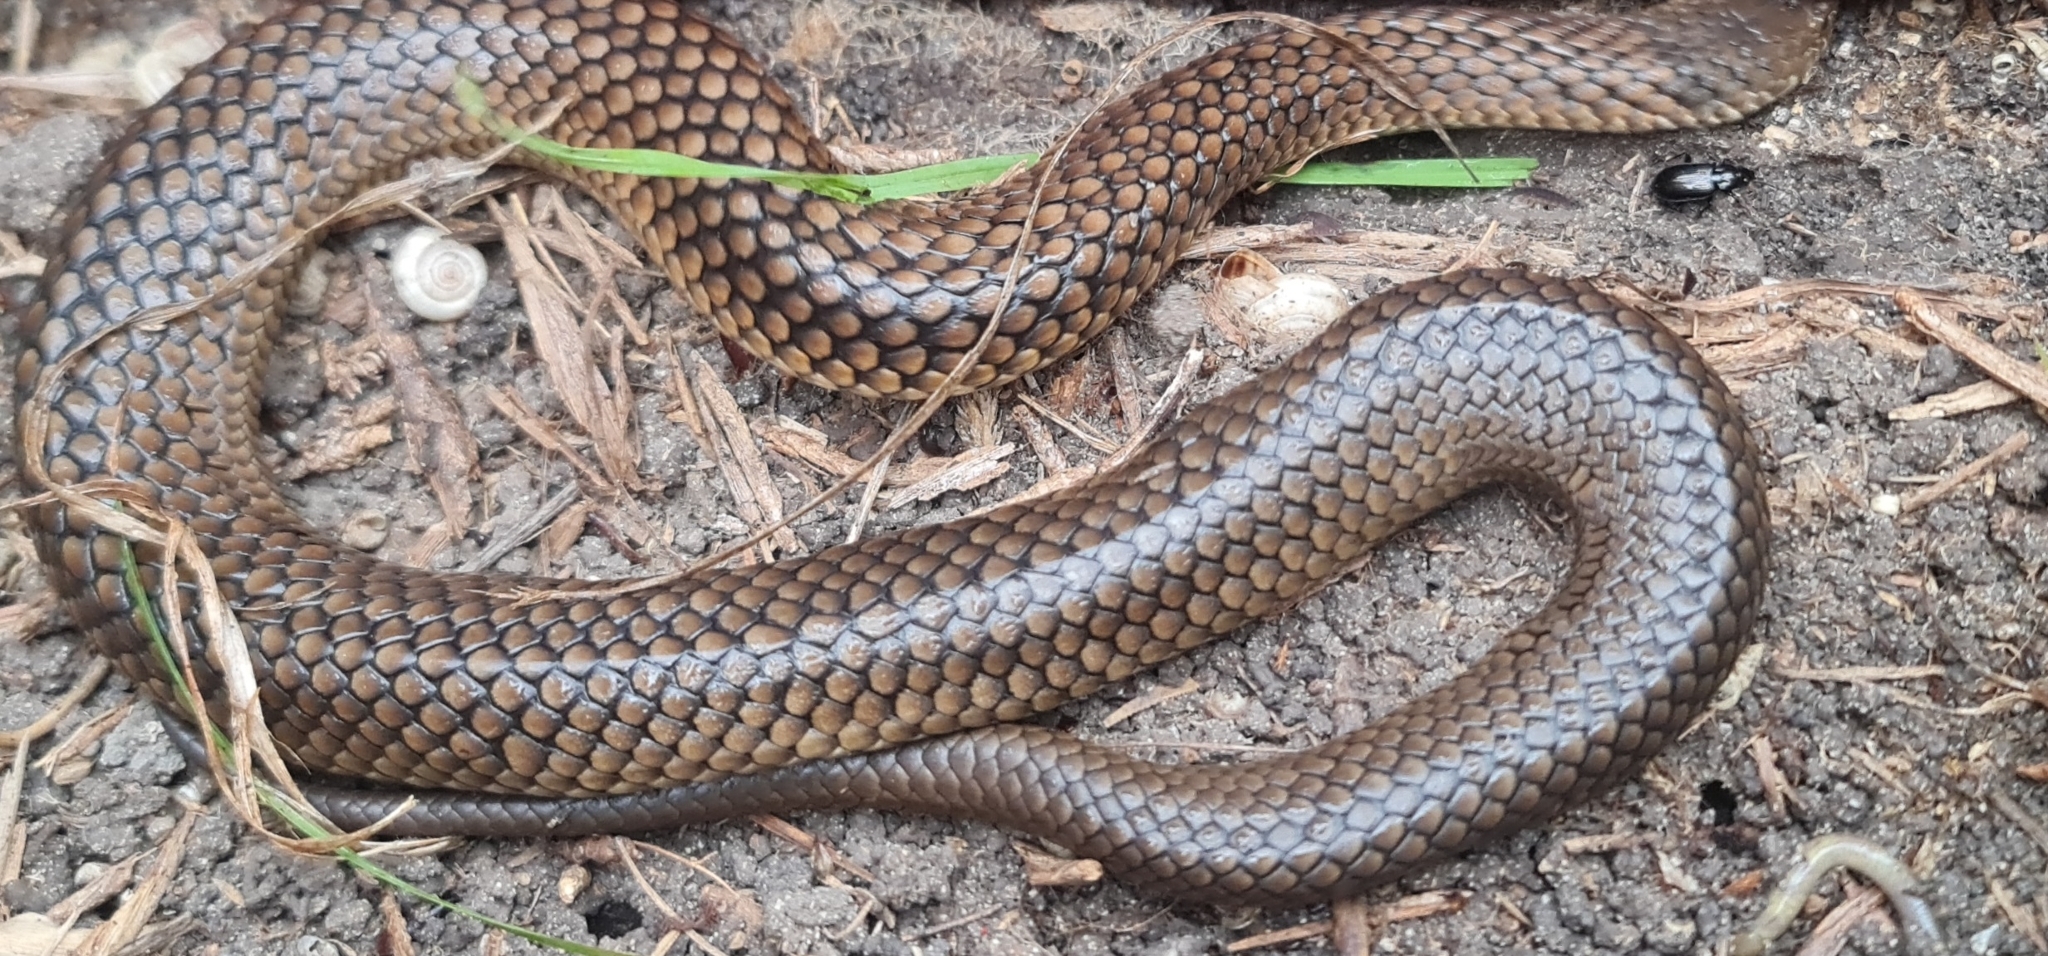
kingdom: Animalia
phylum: Chordata
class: Squamata
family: Elapidae
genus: Austrelaps
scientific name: Austrelaps superbus
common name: Copperhead snake
